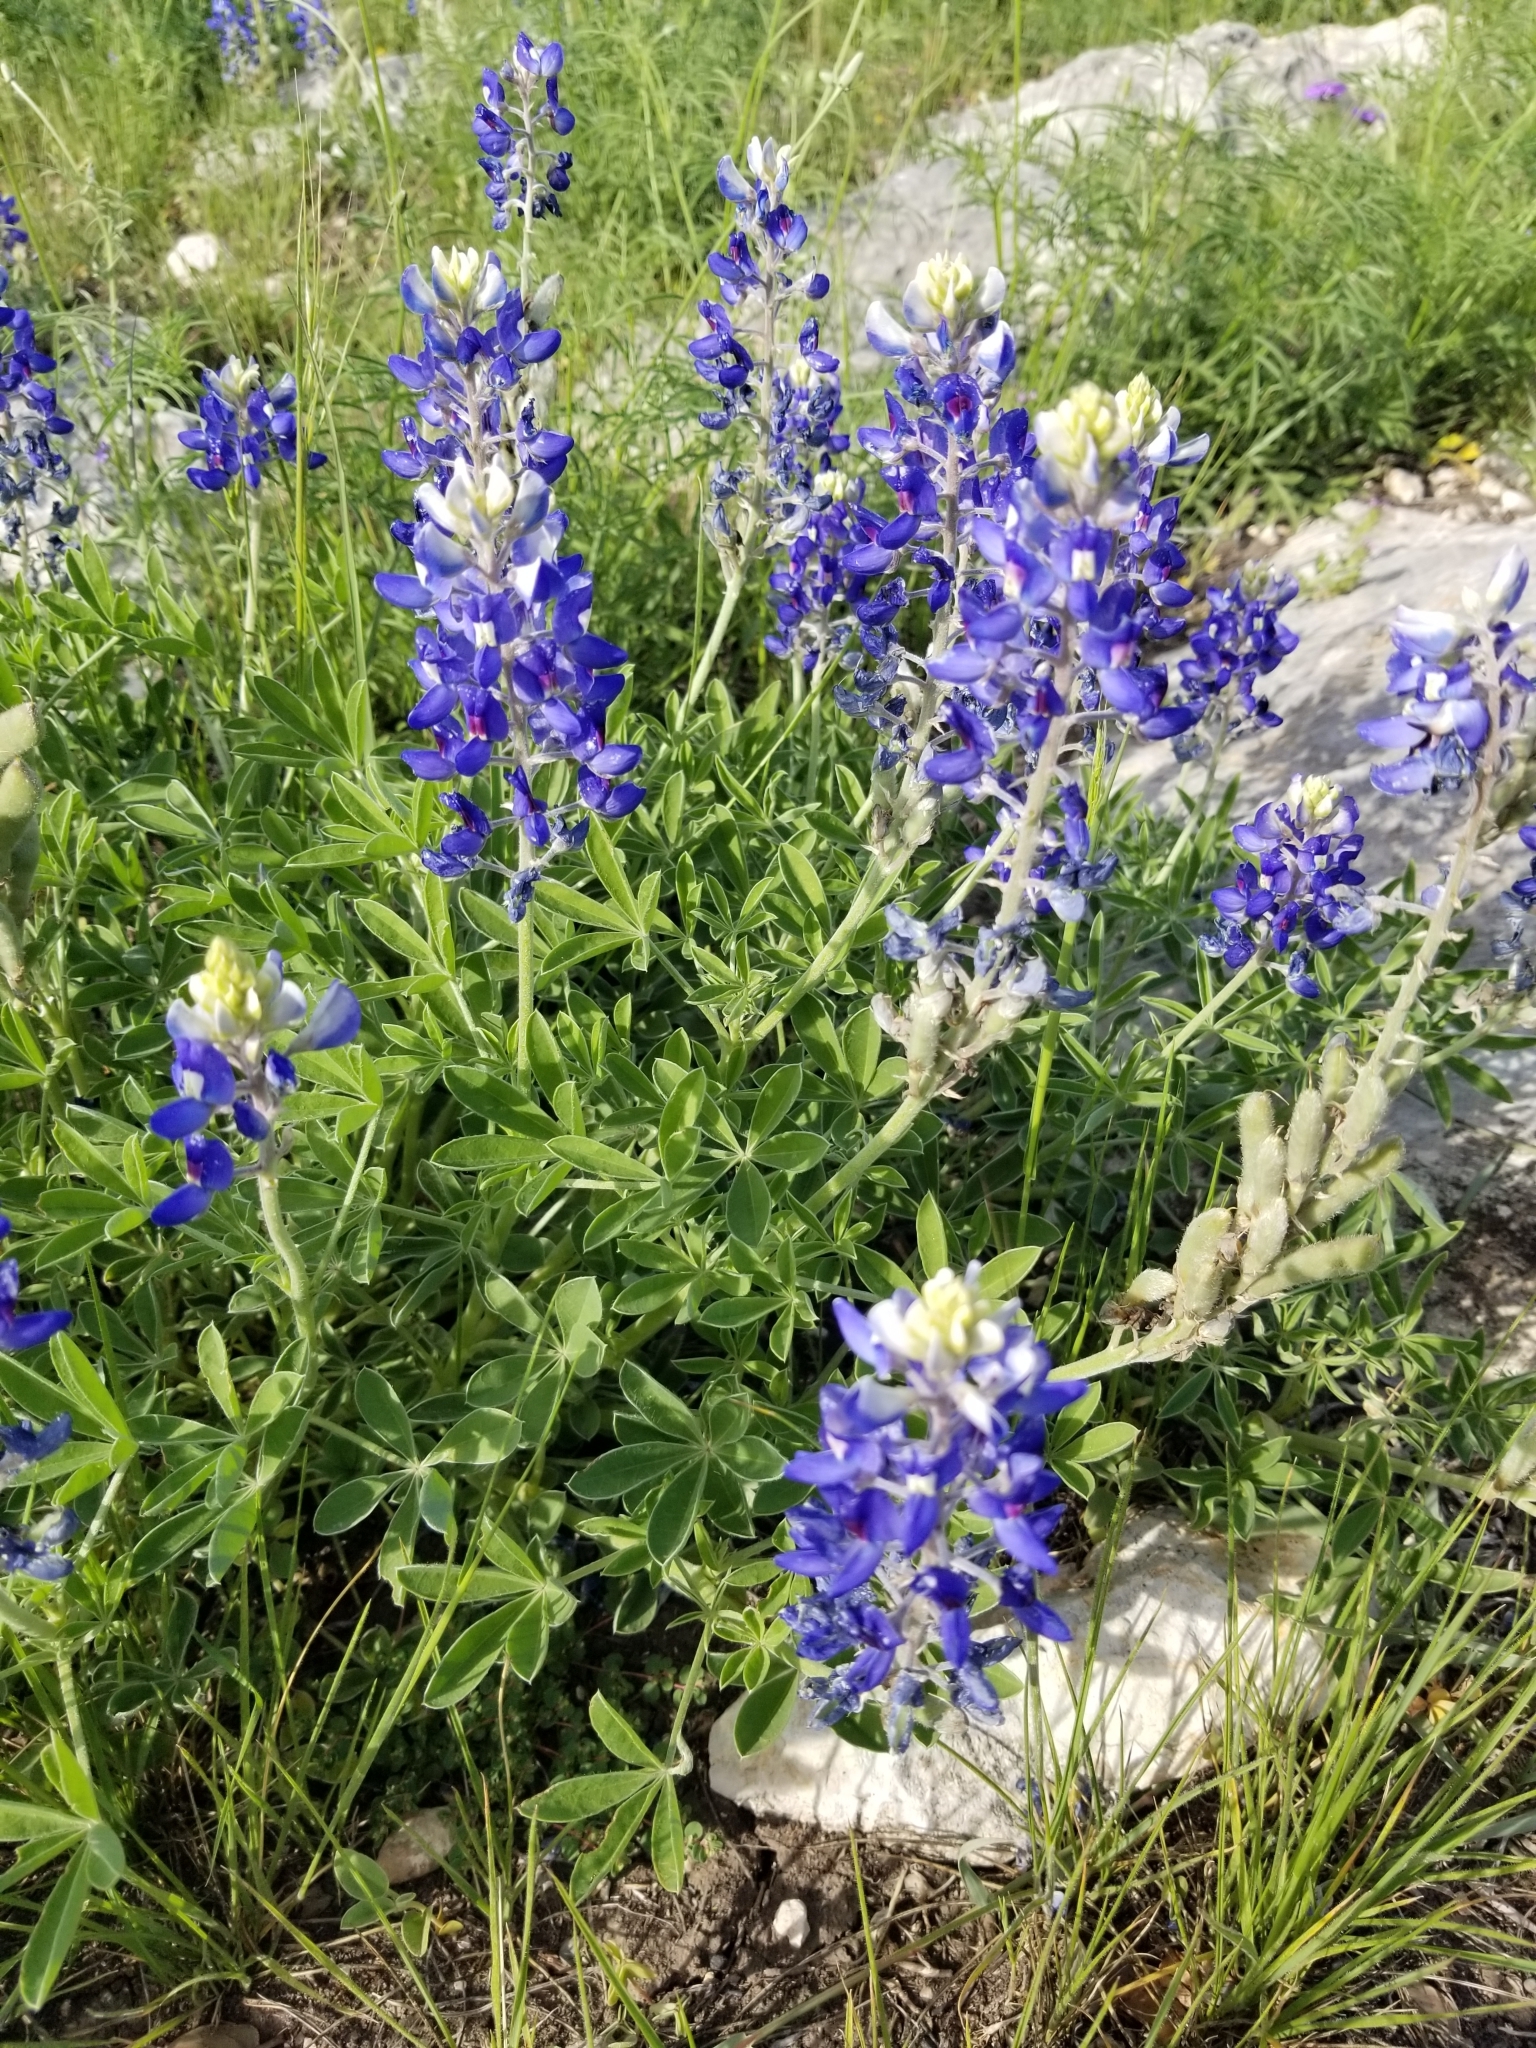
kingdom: Plantae
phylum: Tracheophyta
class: Magnoliopsida
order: Fabales
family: Fabaceae
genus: Lupinus
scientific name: Lupinus texensis
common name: Texas bluebonnet
